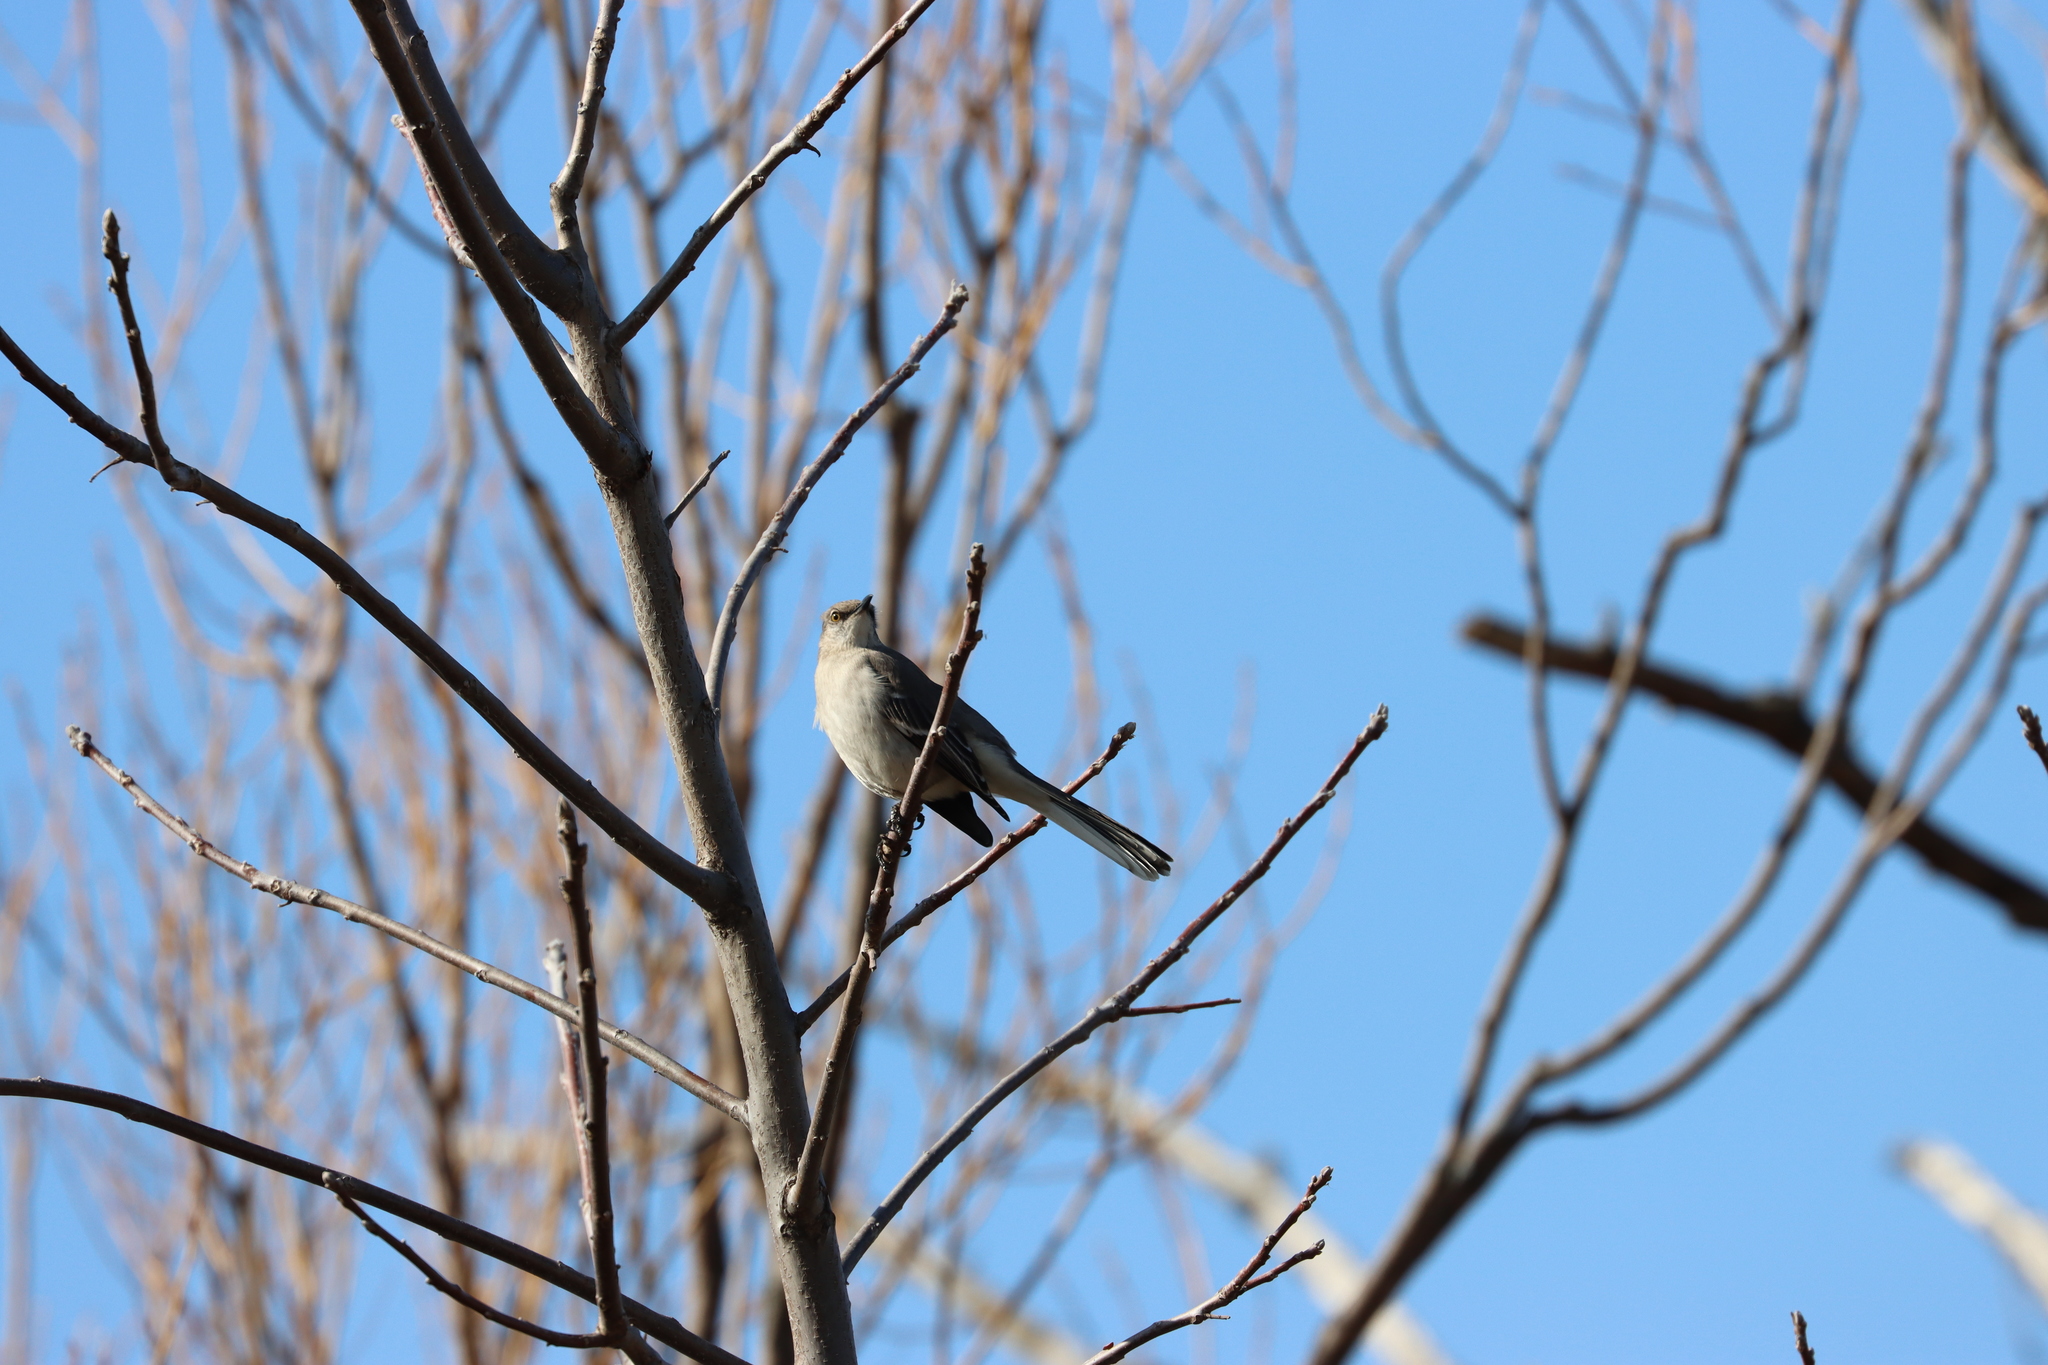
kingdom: Animalia
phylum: Chordata
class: Aves
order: Passeriformes
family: Mimidae
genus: Mimus
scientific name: Mimus polyglottos
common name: Northern mockingbird
